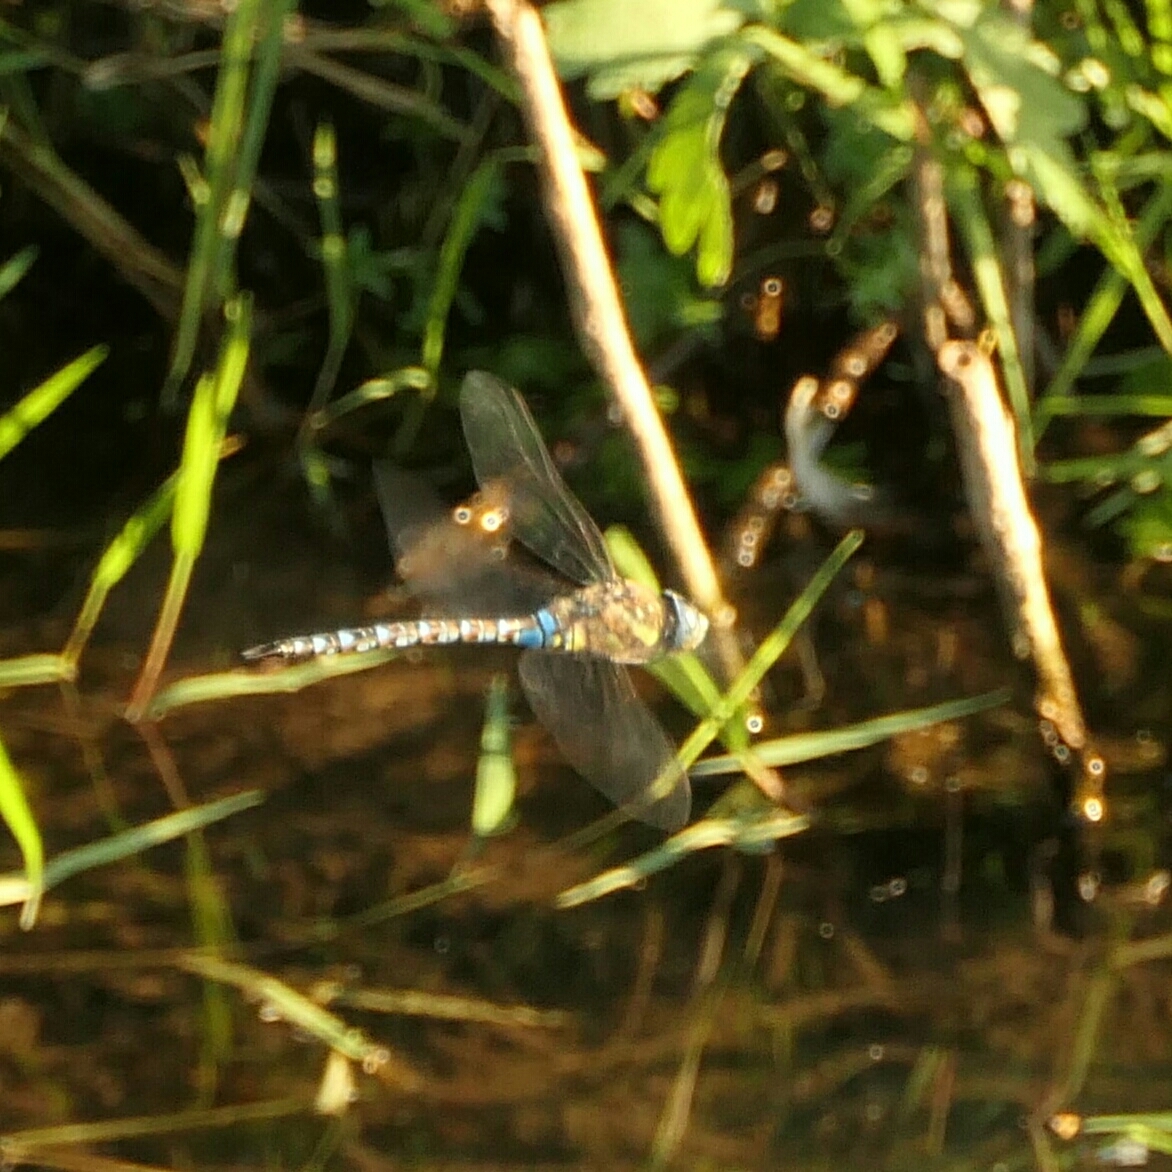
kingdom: Animalia
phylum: Arthropoda
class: Insecta
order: Odonata
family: Aeshnidae
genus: Aeshna
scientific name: Aeshna mixta
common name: Migrant hawker
